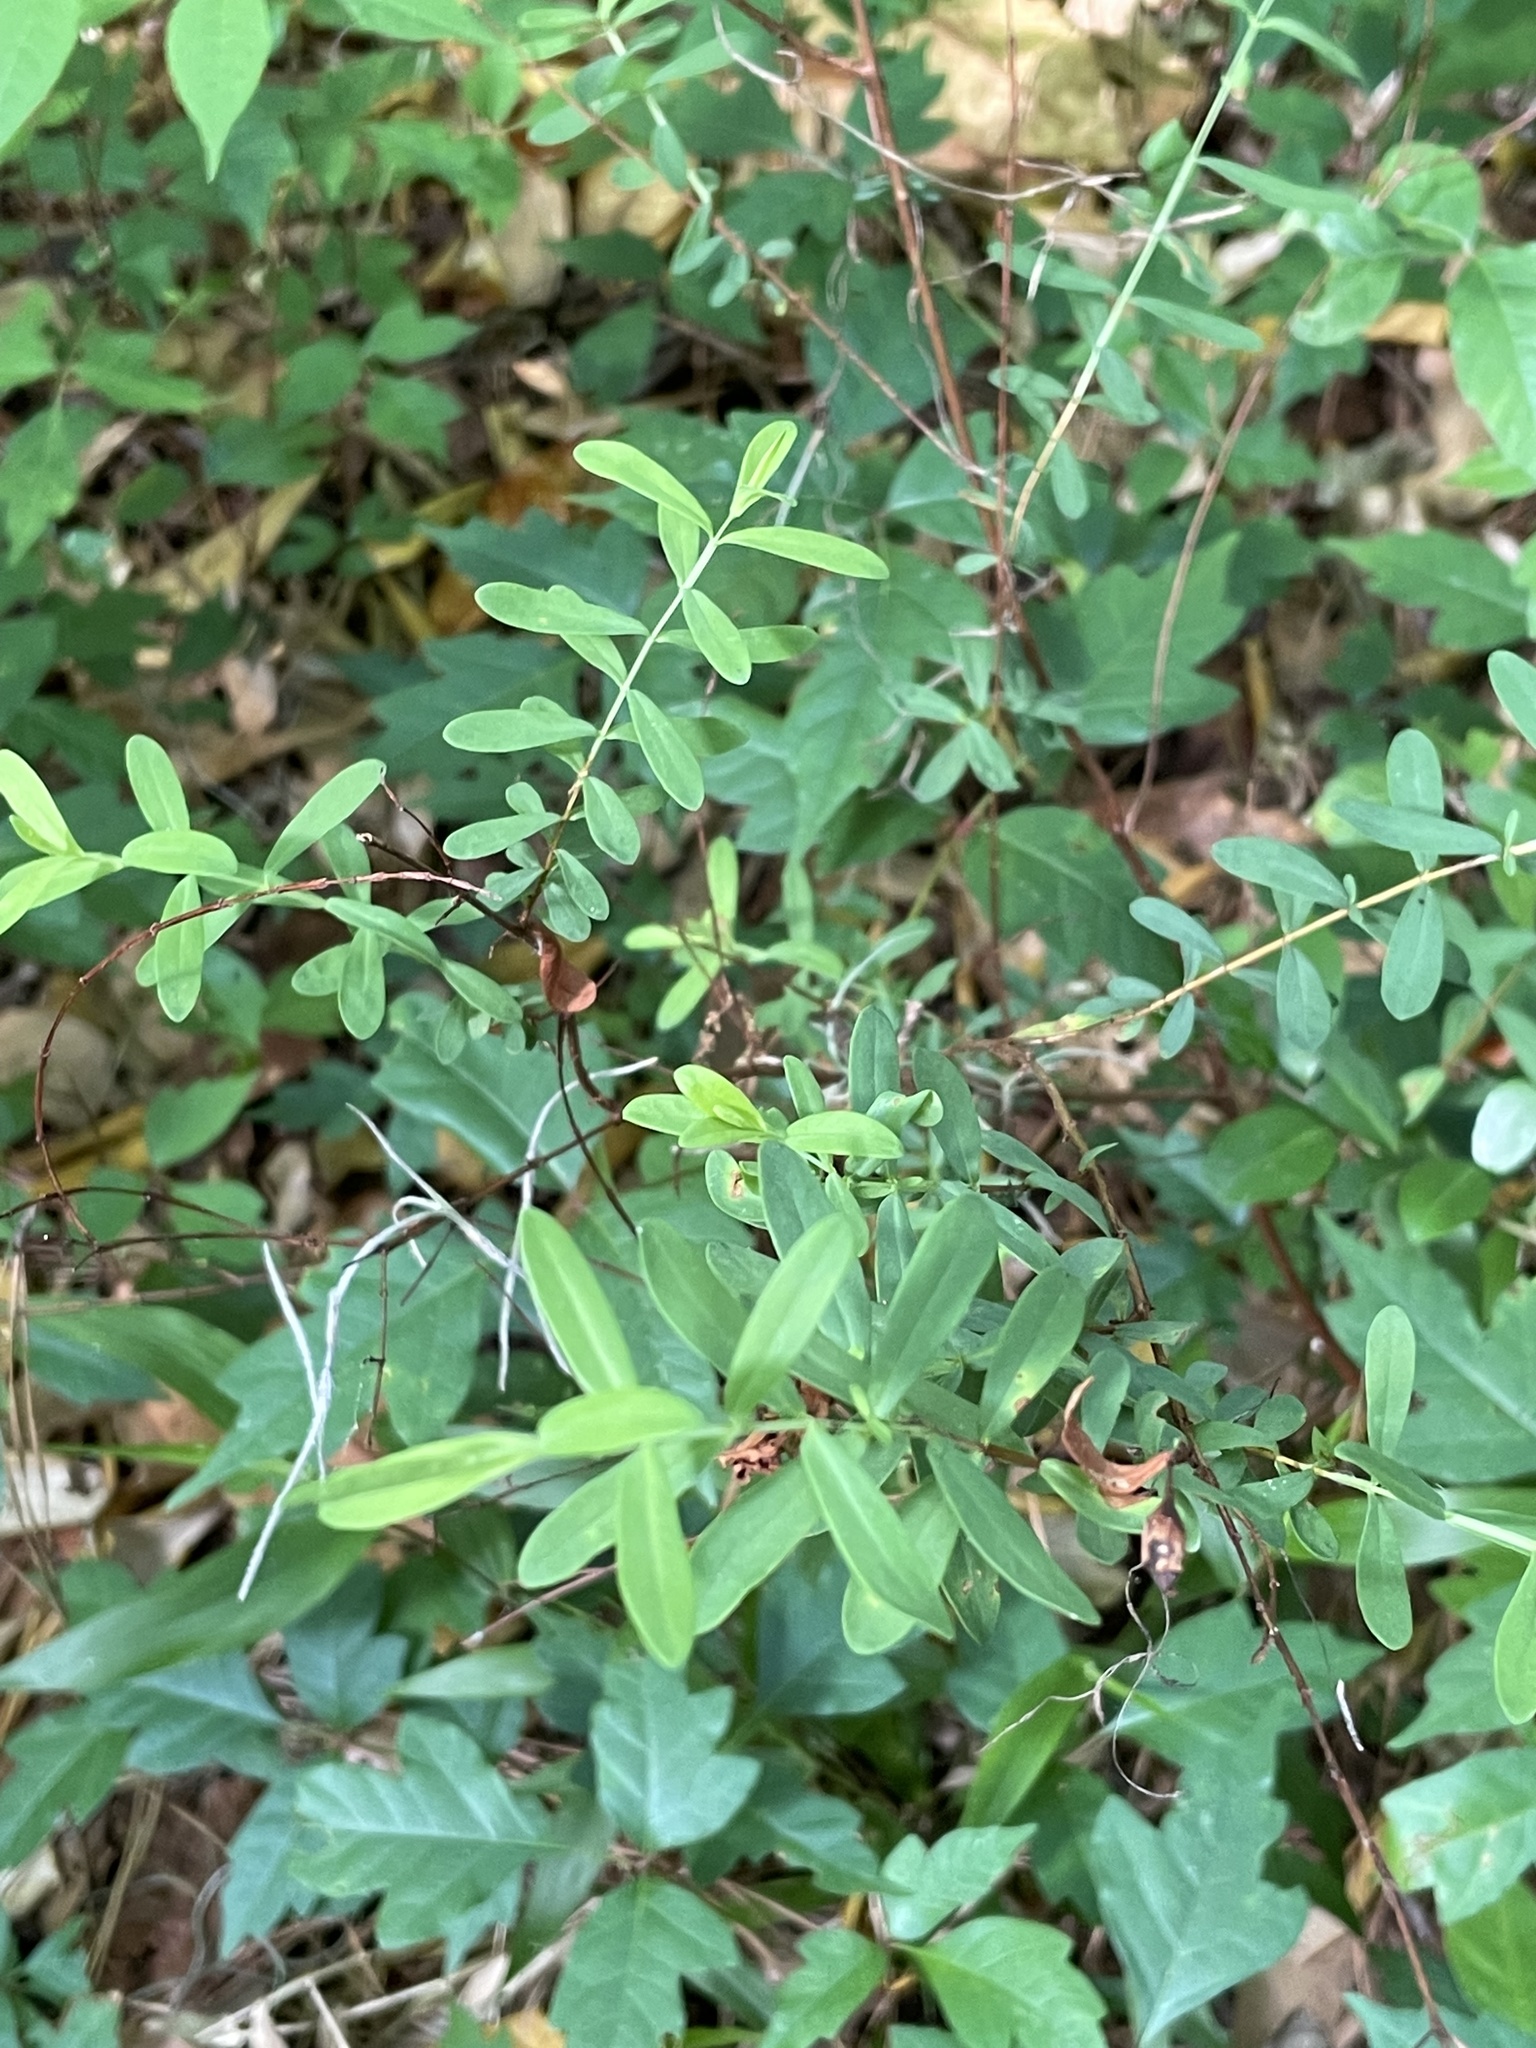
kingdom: Plantae
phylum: Tracheophyta
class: Magnoliopsida
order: Malpighiales
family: Hypericaceae
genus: Hypericum
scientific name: Hypericum hypericoides
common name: St. andrew's cross
